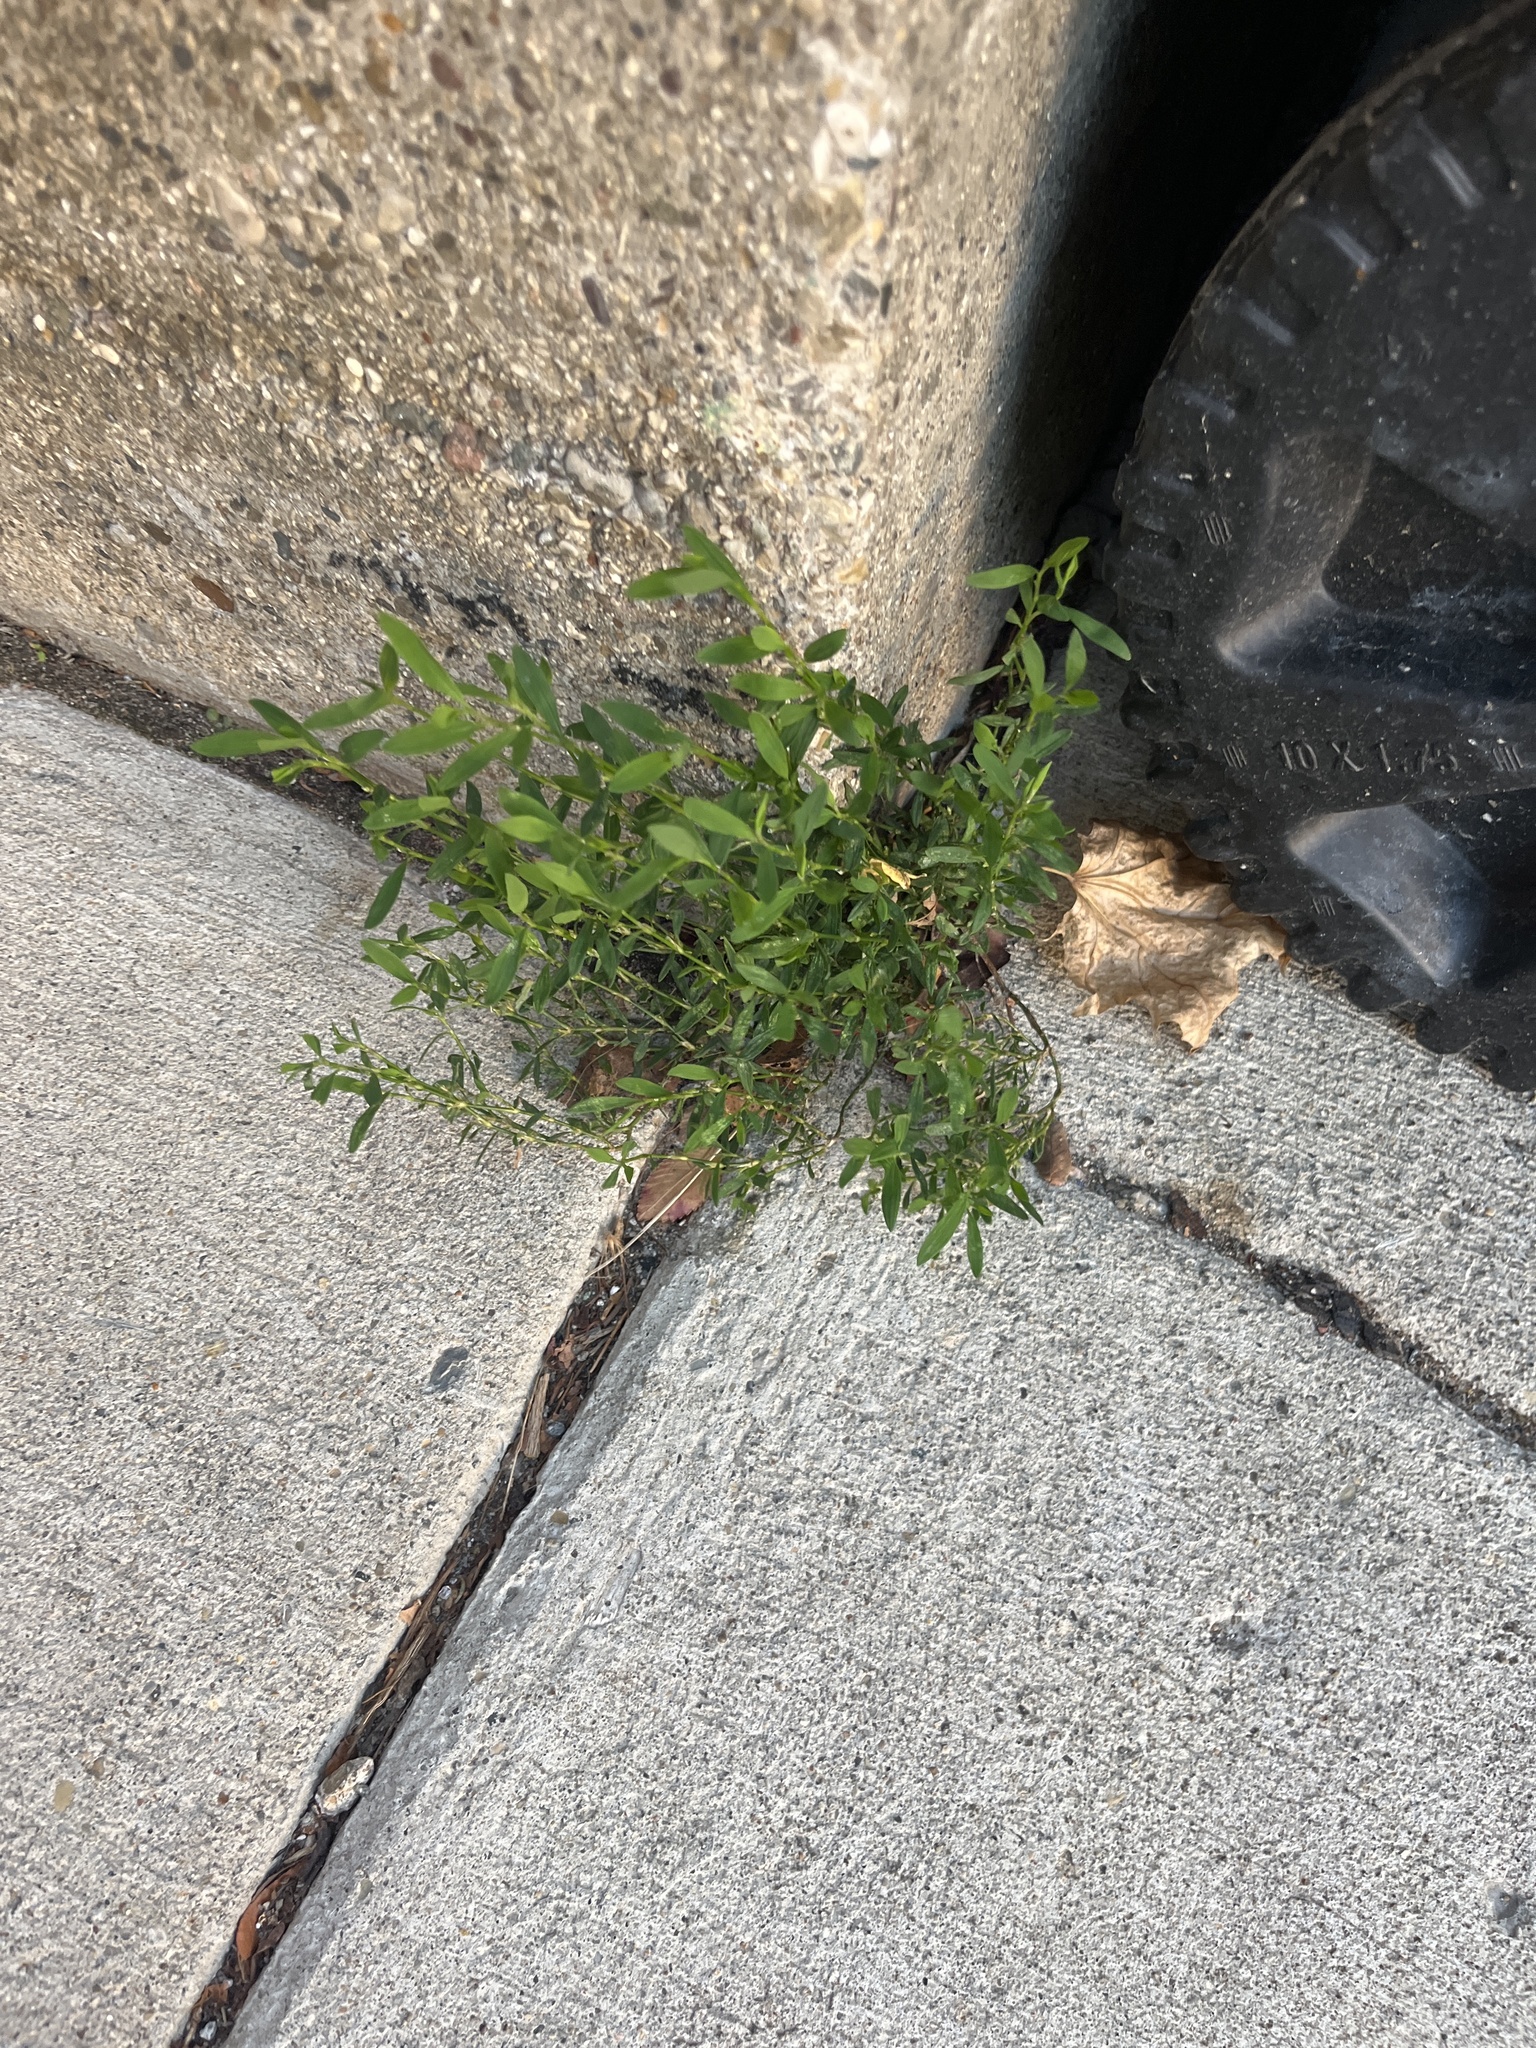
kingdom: Plantae
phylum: Tracheophyta
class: Magnoliopsida
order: Caryophyllales
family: Polygonaceae
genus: Polygonum
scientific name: Polygonum aviculare
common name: Prostrate knotweed
